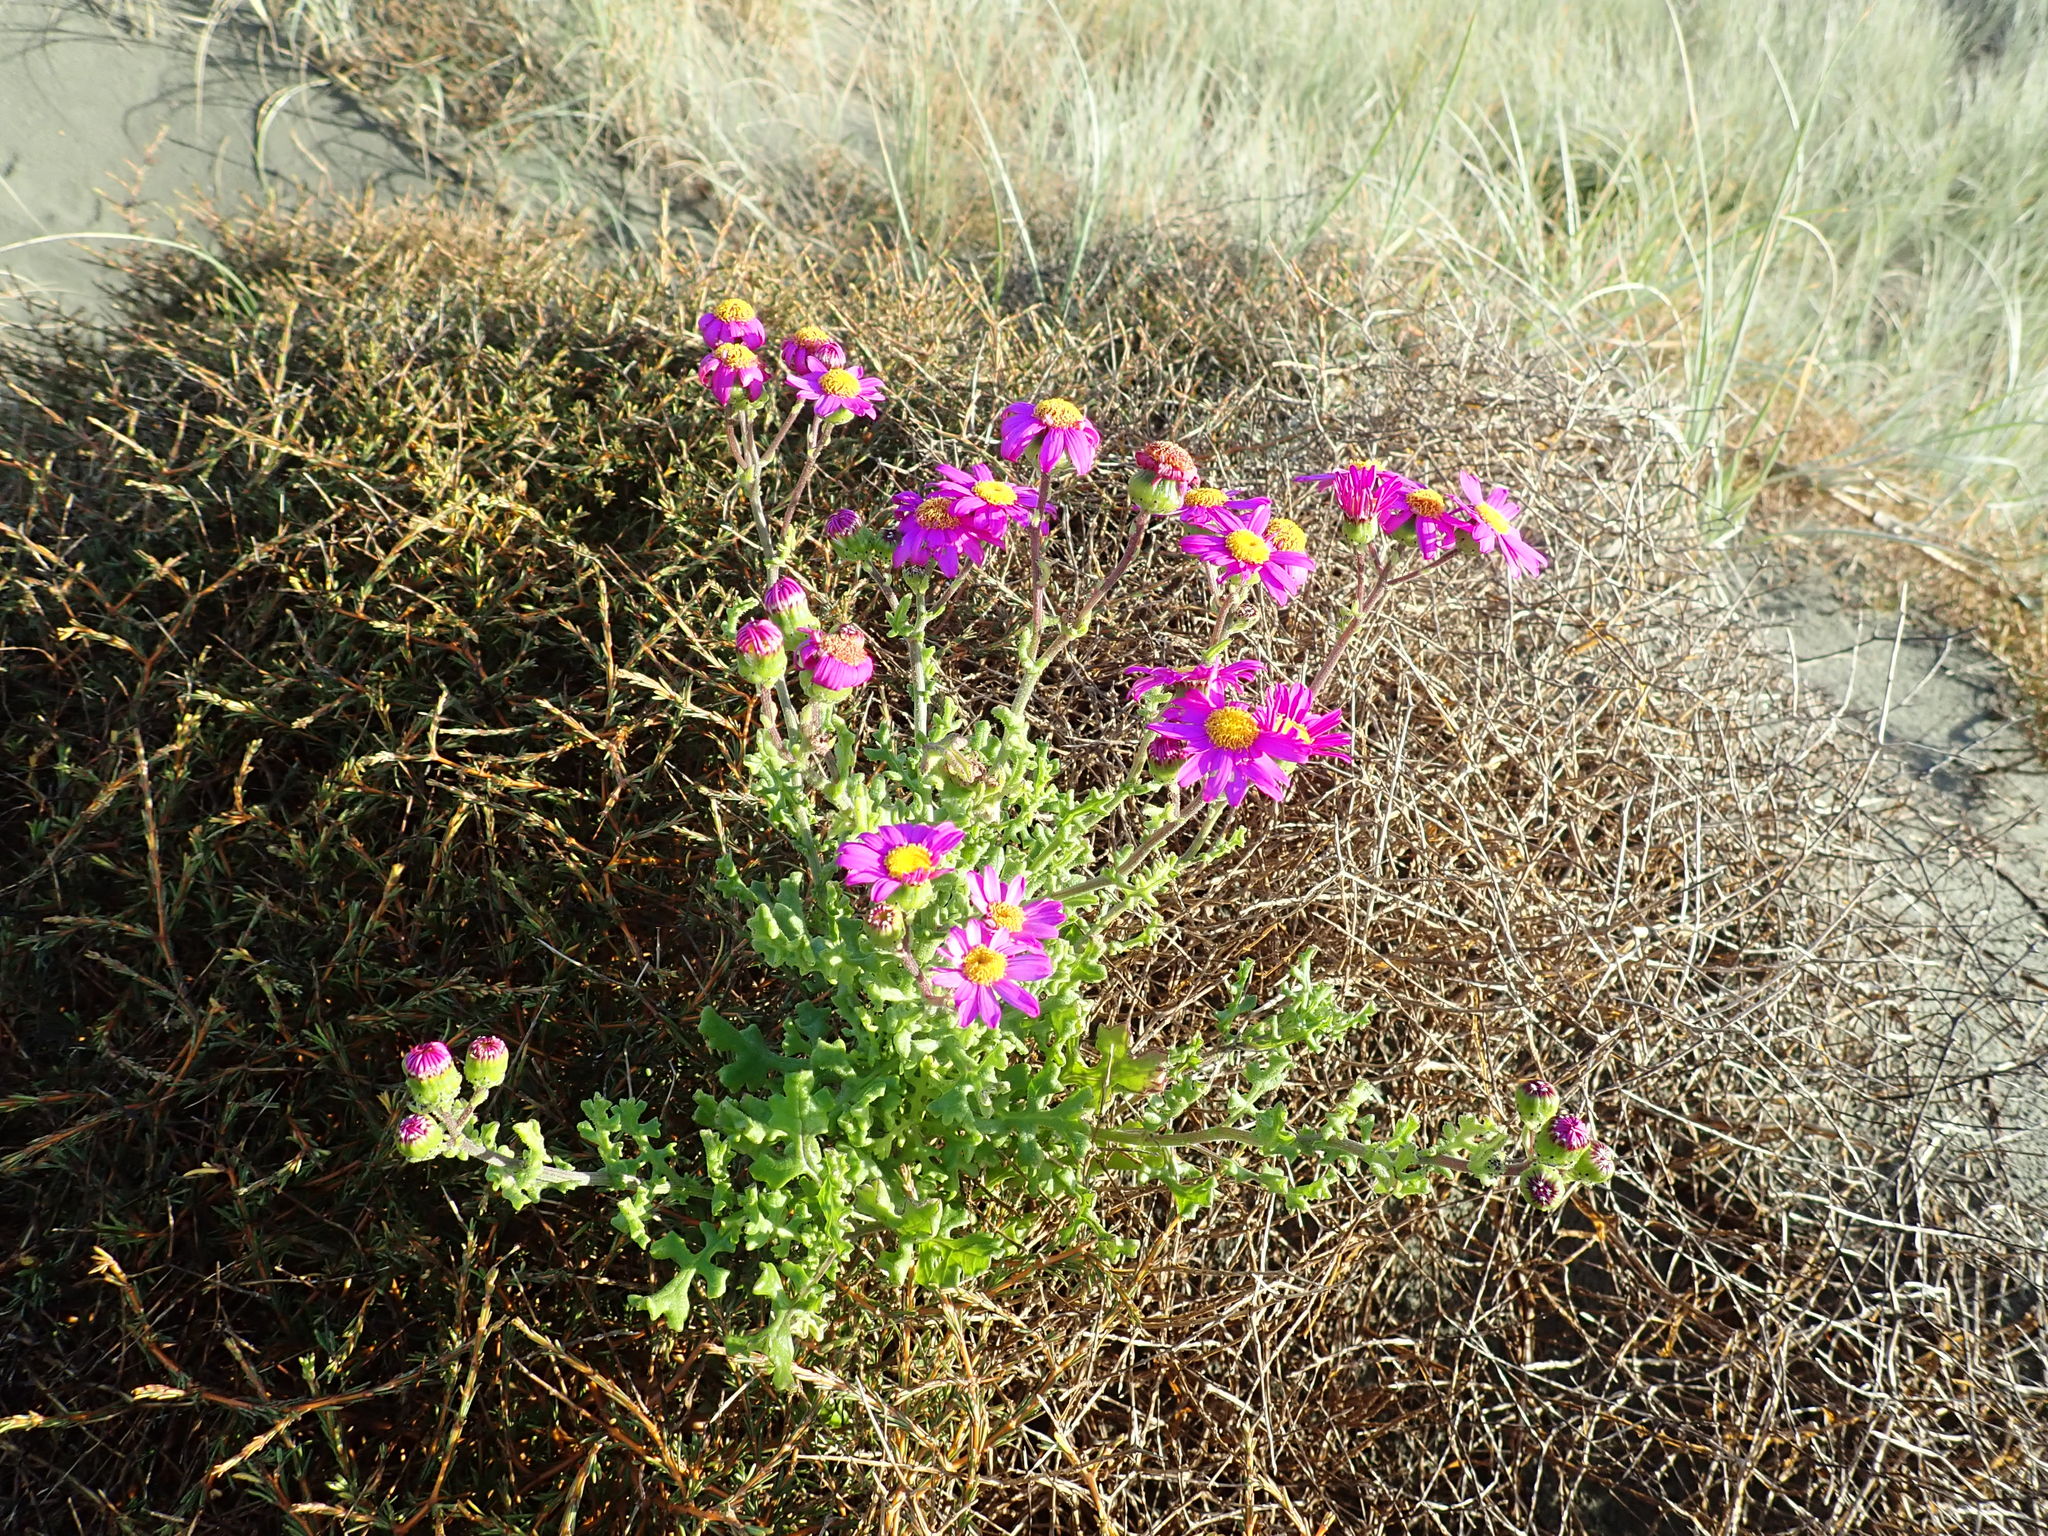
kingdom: Plantae
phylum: Tracheophyta
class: Magnoliopsida
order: Asterales
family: Asteraceae
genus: Senecio
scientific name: Senecio elegans
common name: Purple groundsel
